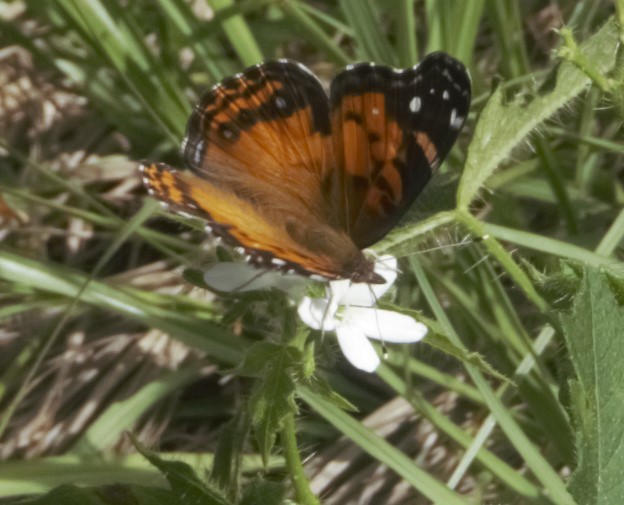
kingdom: Animalia
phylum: Arthropoda
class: Insecta
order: Lepidoptera
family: Nymphalidae
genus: Vanessa
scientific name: Vanessa virginiensis
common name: American lady
